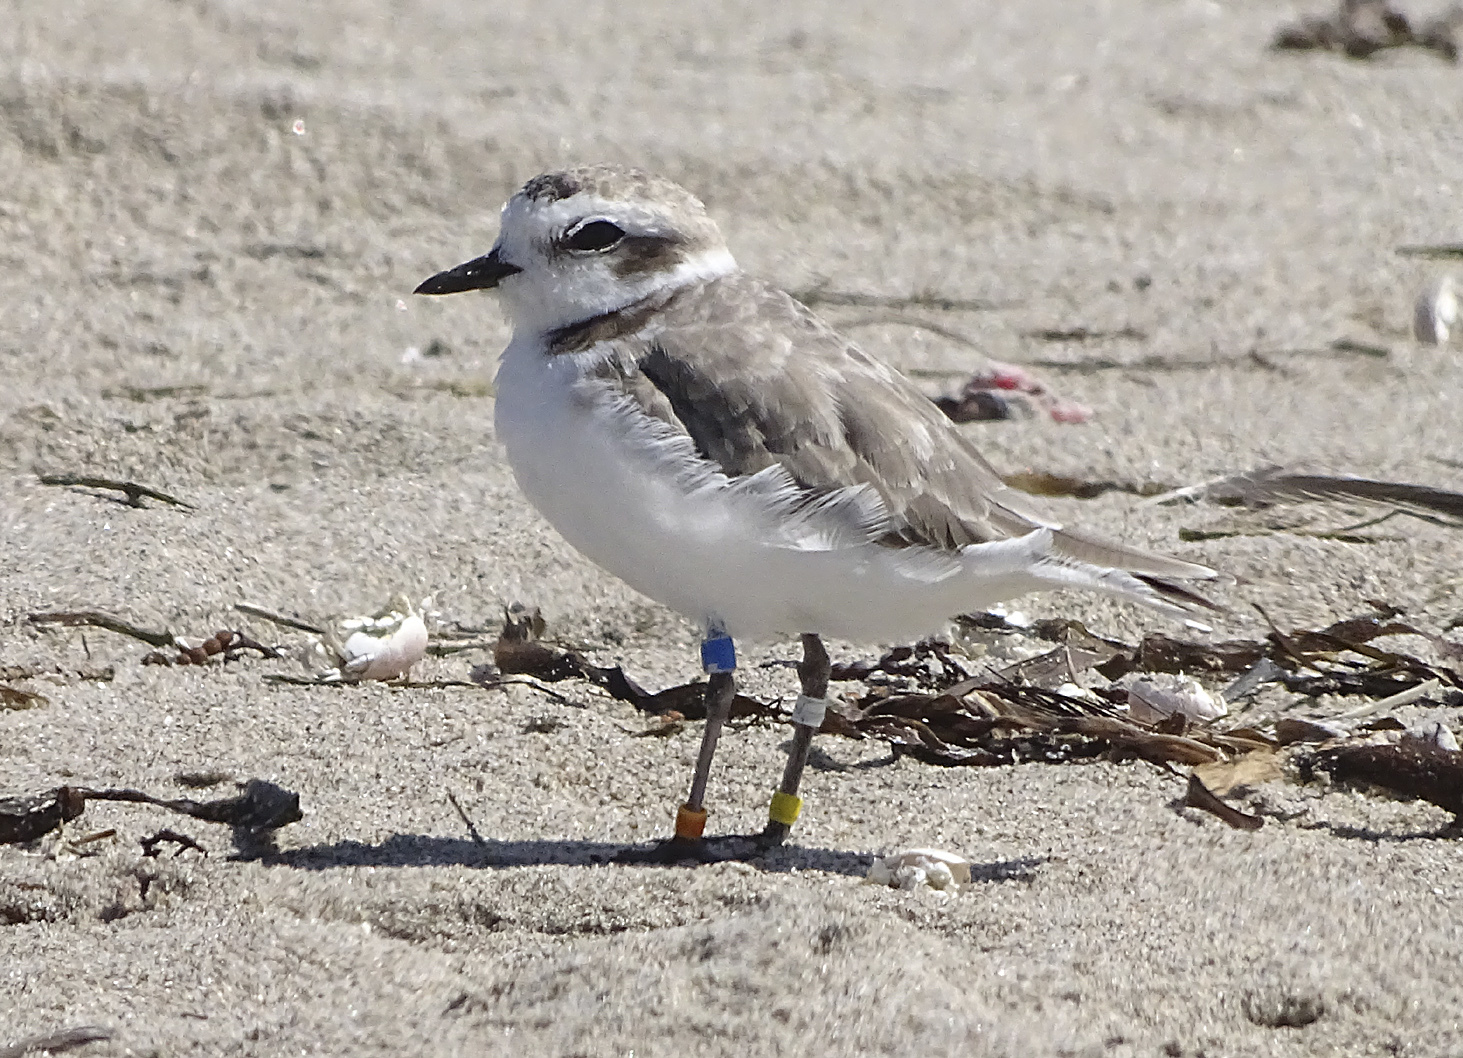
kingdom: Animalia
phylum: Chordata
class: Aves
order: Charadriiformes
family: Charadriidae
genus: Anarhynchus
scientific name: Anarhynchus
